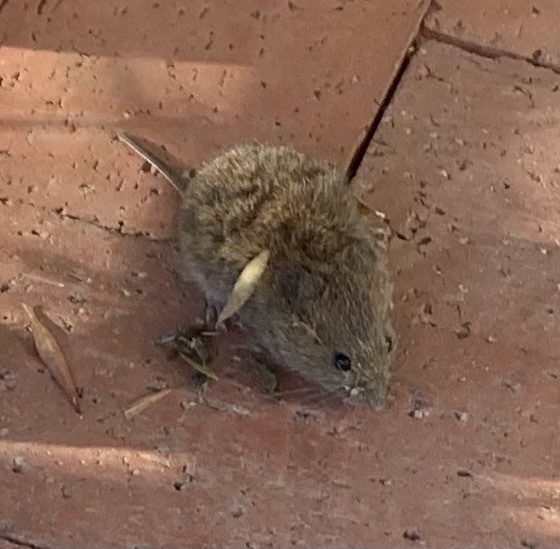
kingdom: Animalia
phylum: Chordata
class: Mammalia
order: Rodentia
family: Cricetidae
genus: Microtus
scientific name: Microtus californicus
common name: California vole
